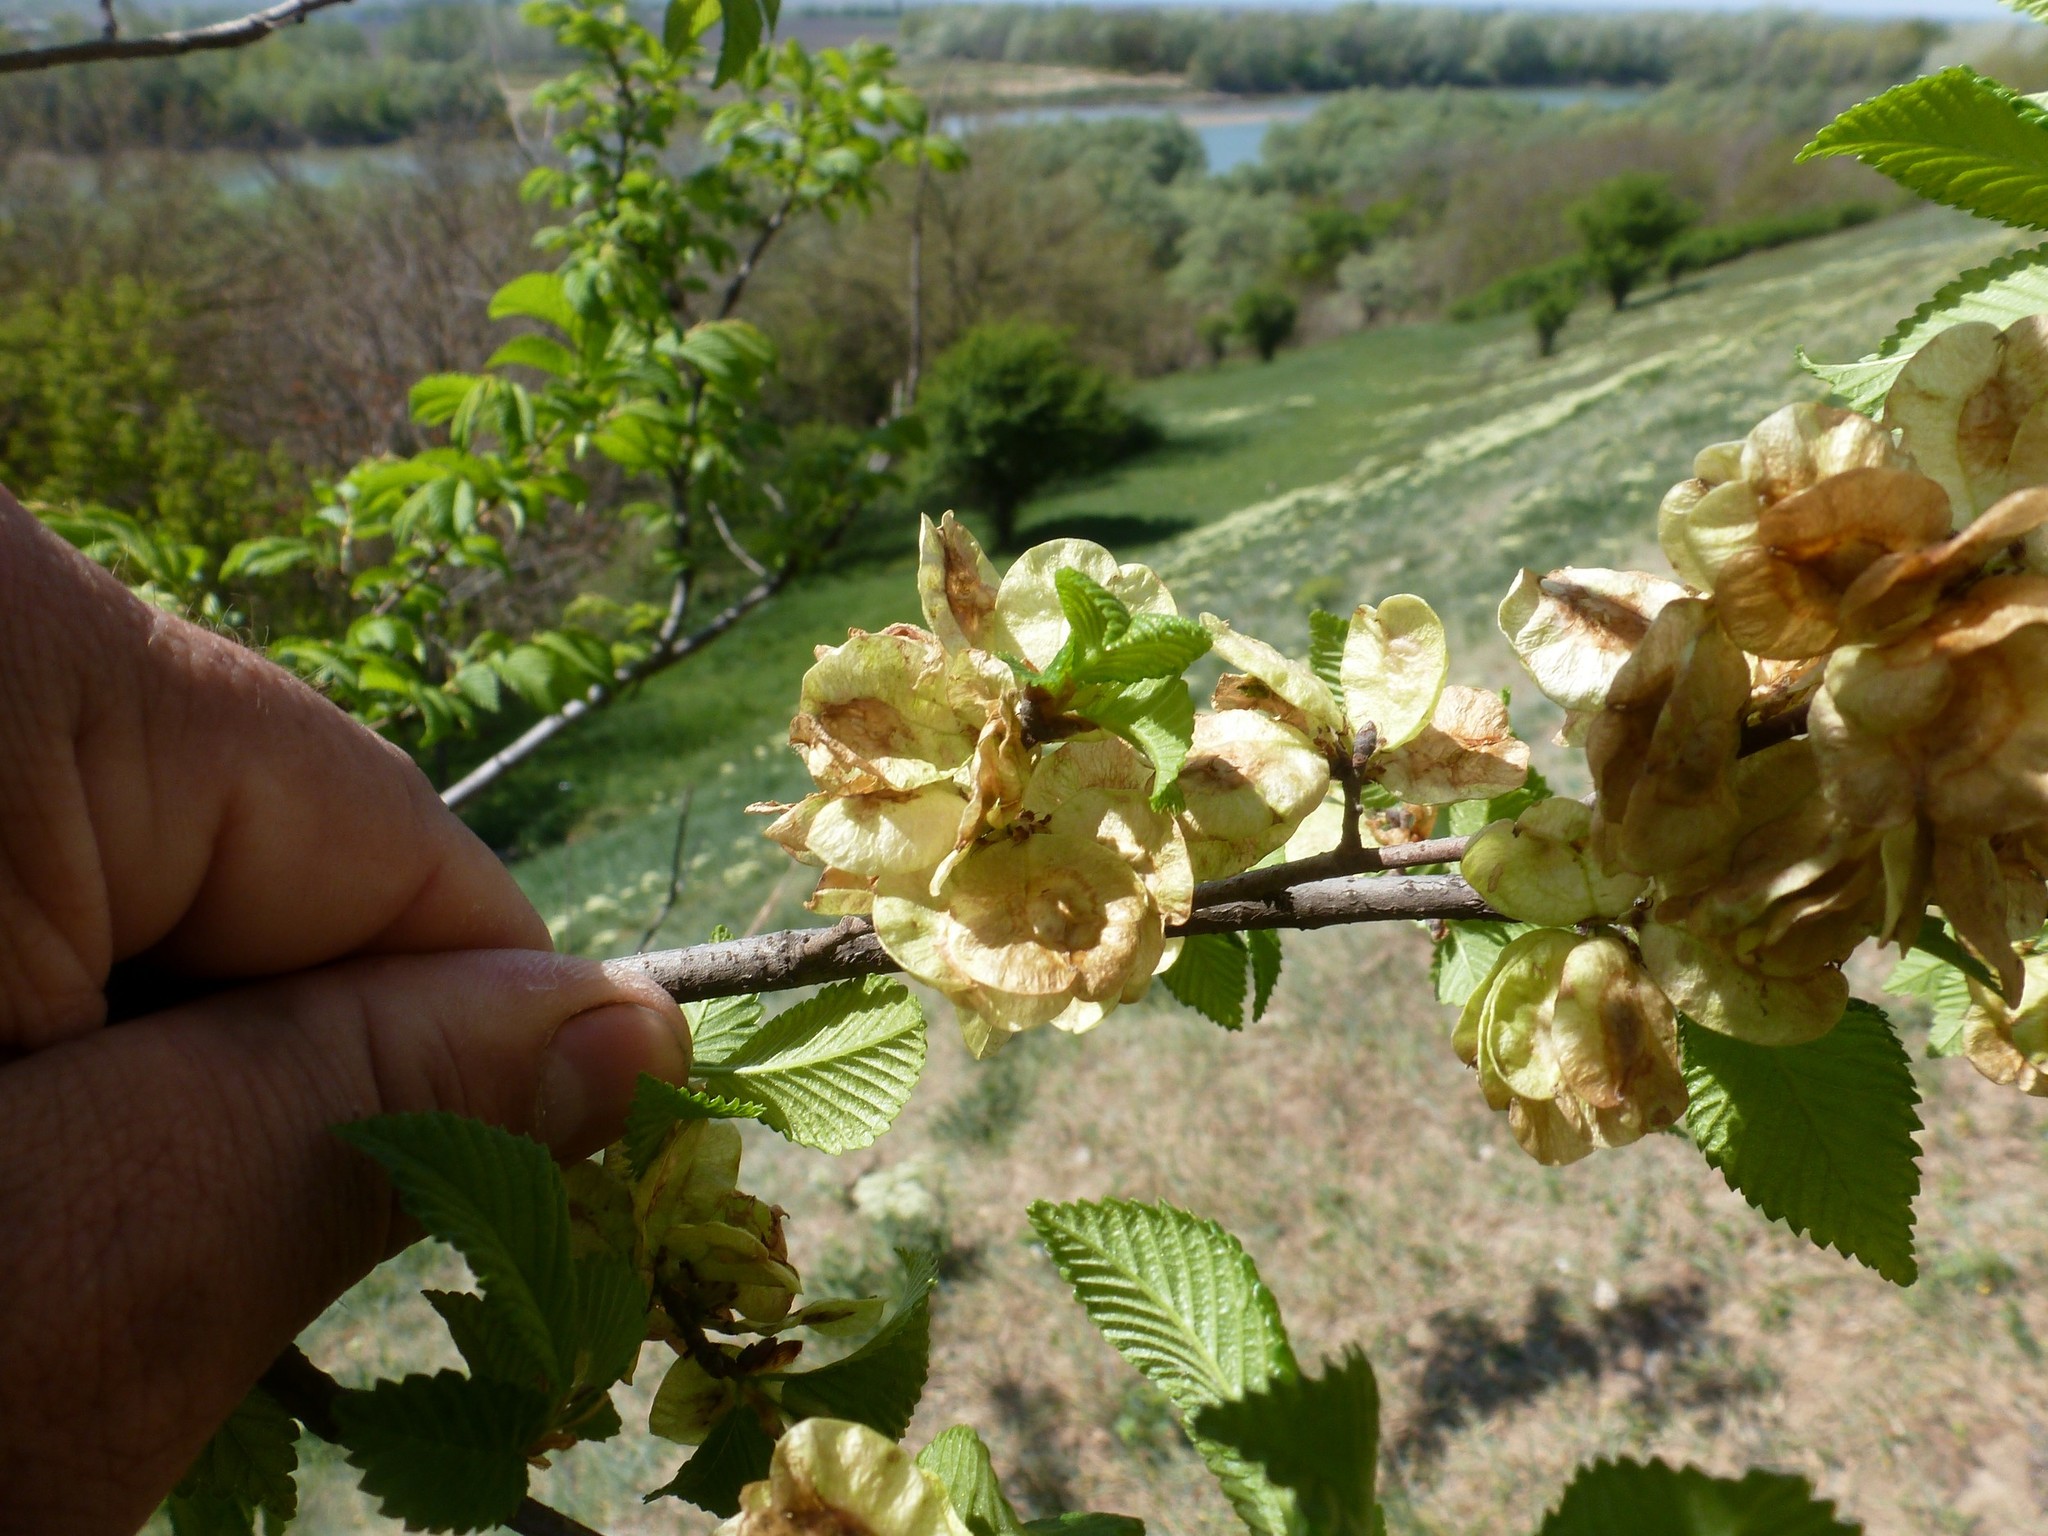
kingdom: Plantae
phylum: Tracheophyta
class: Magnoliopsida
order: Rosales
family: Ulmaceae
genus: Ulmus
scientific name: Ulmus minor
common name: Small-leaved elm
